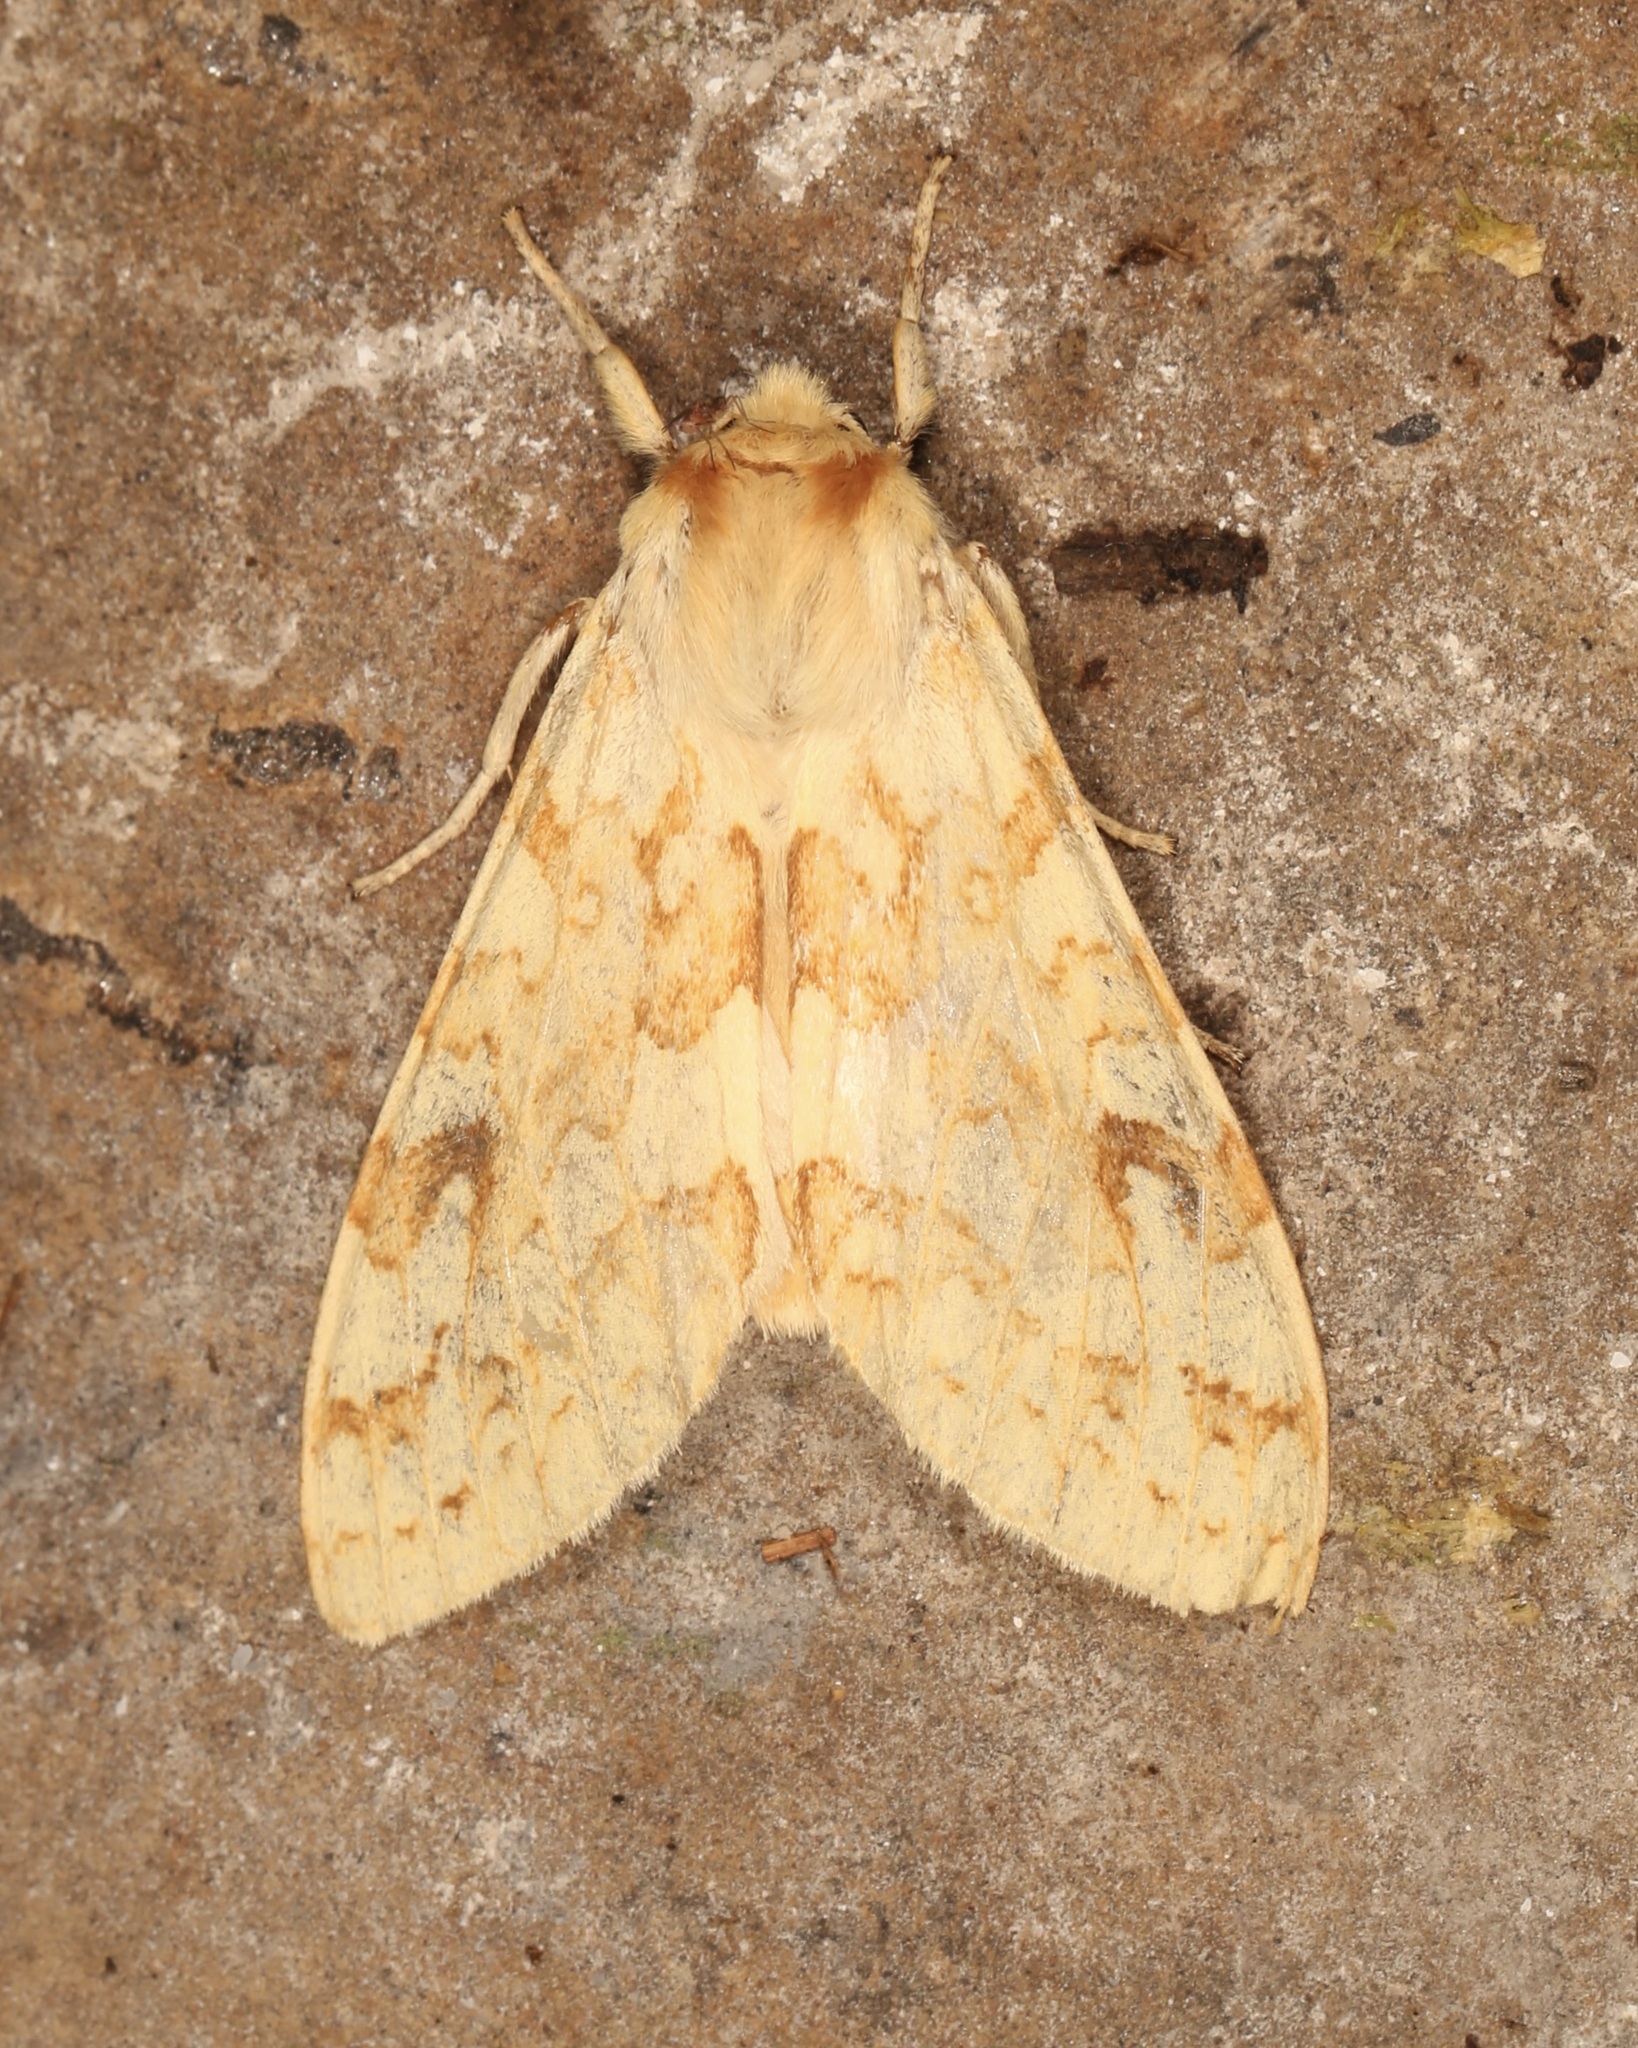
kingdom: Animalia
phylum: Arthropoda
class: Insecta
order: Lepidoptera
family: Erebidae
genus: Lophocampa
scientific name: Lophocampa maculata
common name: Spotted tussock moth
